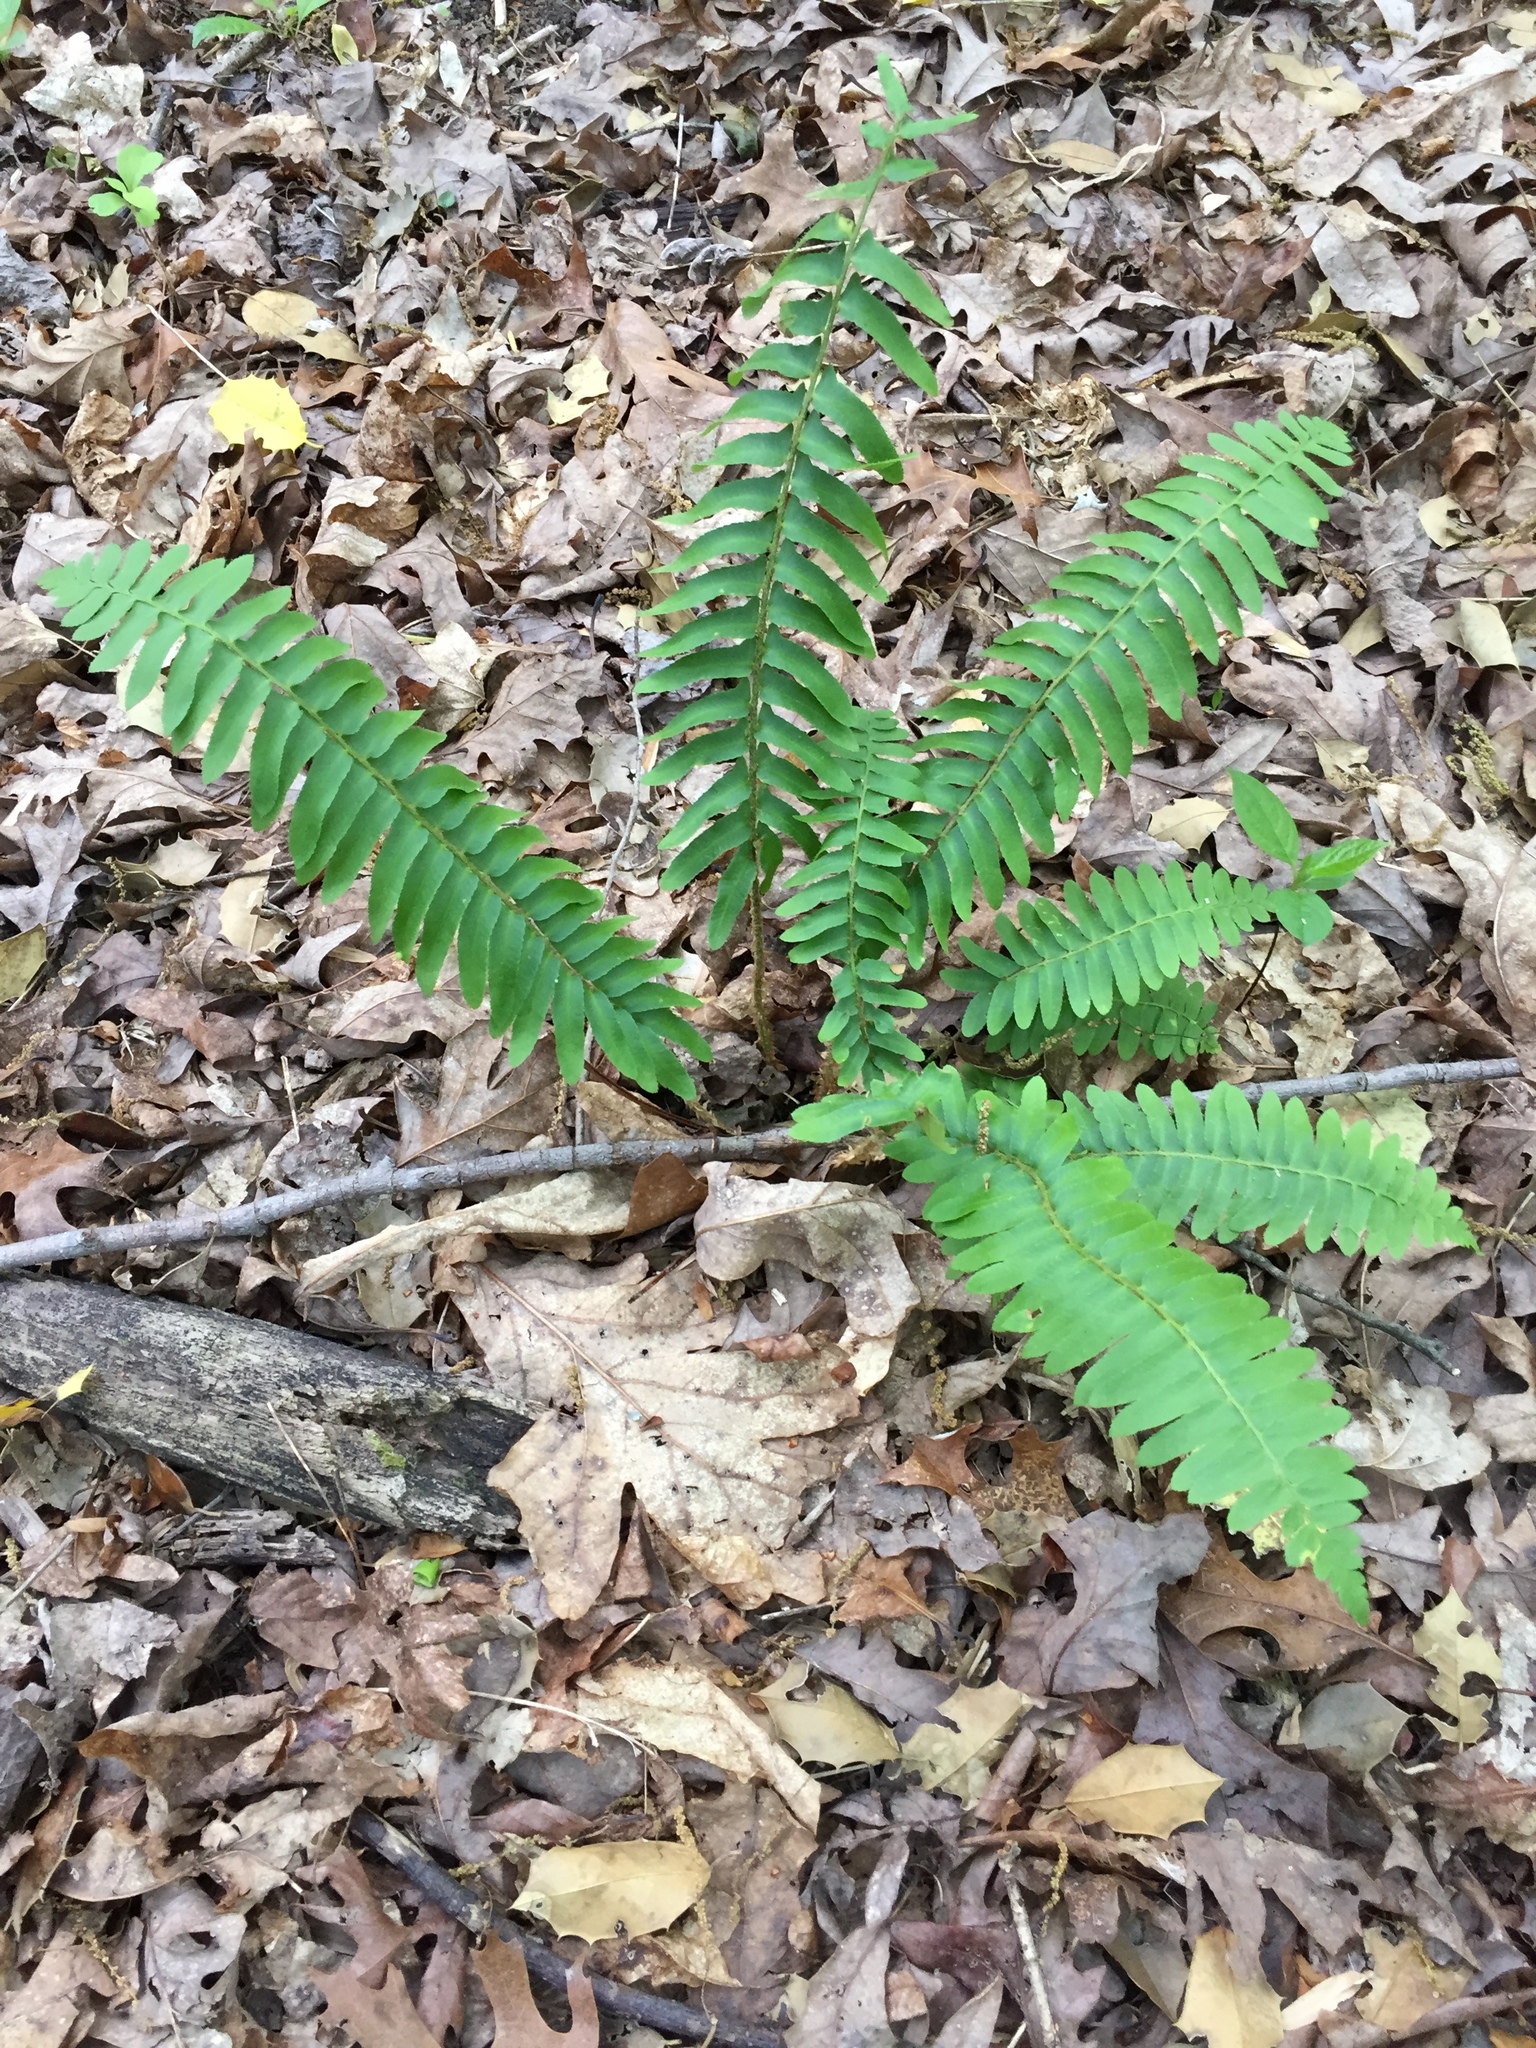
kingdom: Plantae
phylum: Tracheophyta
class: Polypodiopsida
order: Polypodiales
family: Dryopteridaceae
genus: Polystichum
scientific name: Polystichum acrostichoides
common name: Christmas fern
